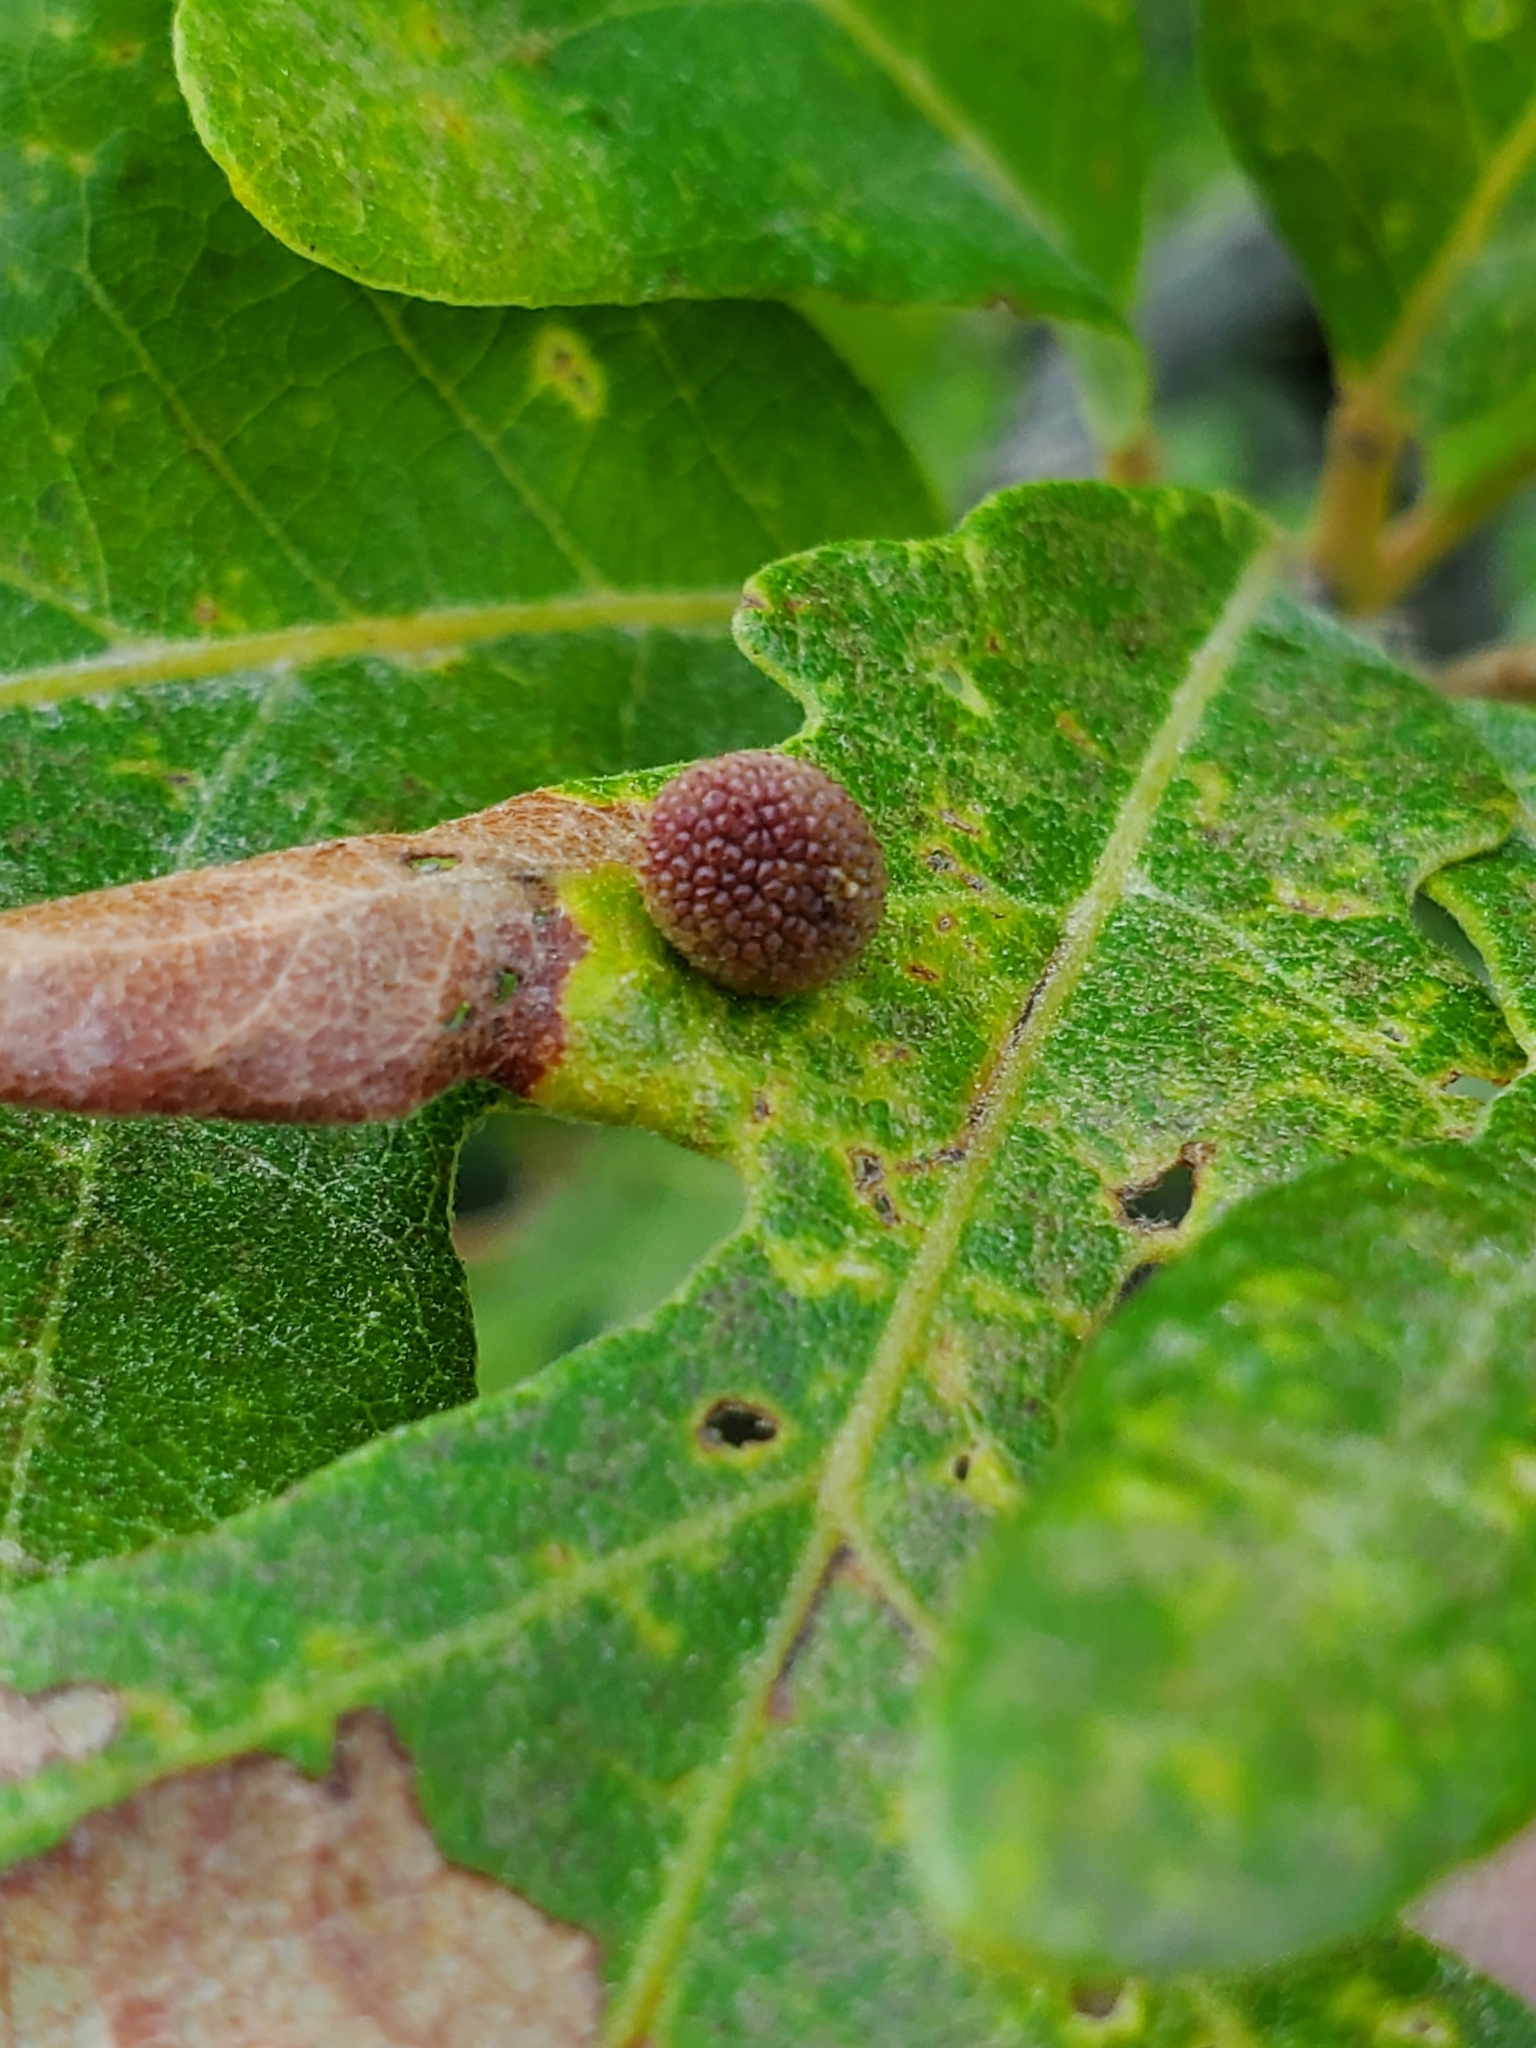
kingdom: Animalia
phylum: Arthropoda
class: Insecta
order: Hymenoptera
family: Cynipidae
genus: Acraspis
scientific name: Acraspis quercushirta
